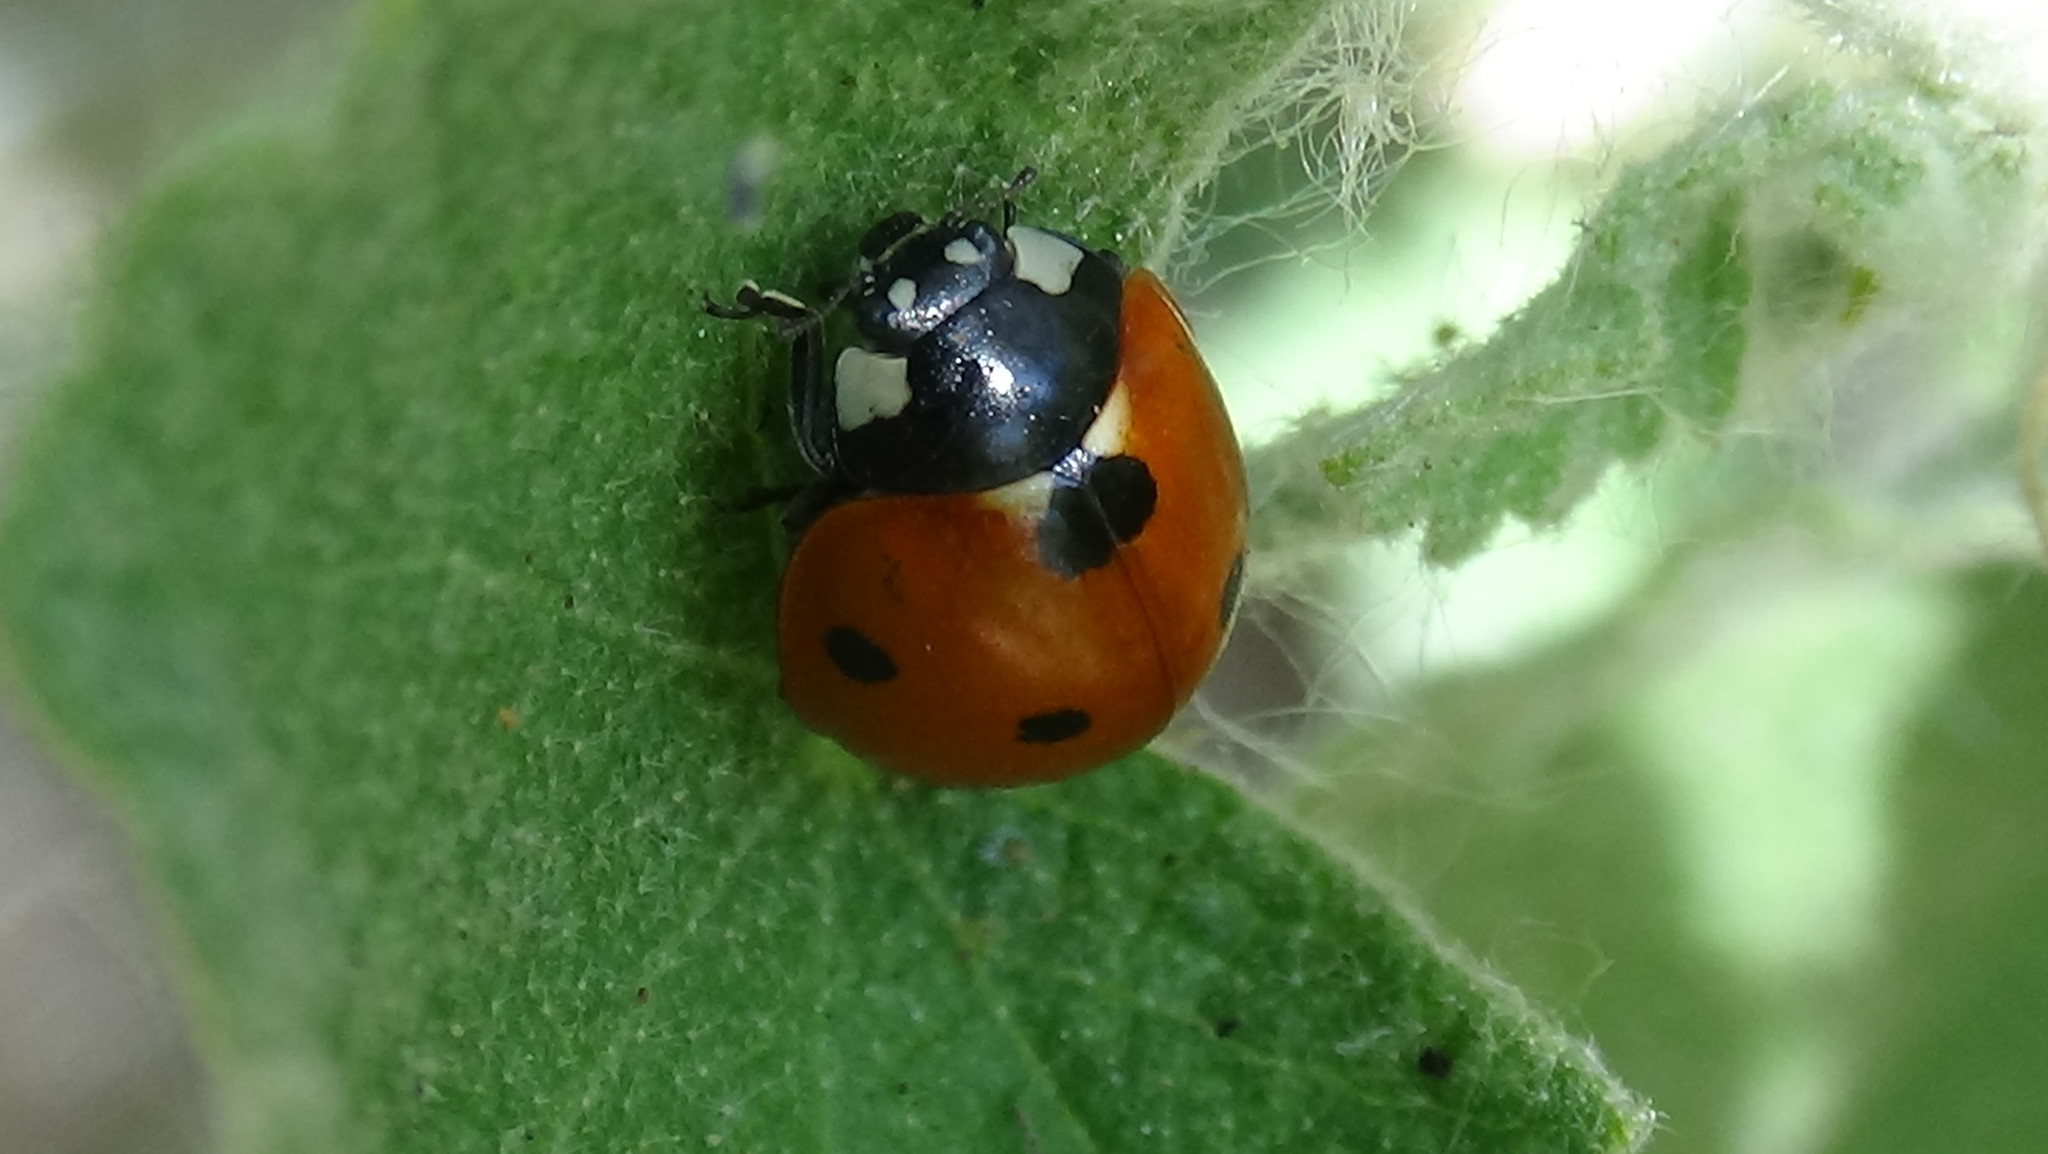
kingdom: Animalia
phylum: Arthropoda
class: Insecta
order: Coleoptera
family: Coccinellidae
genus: Coccinella
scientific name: Coccinella septempunctata
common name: Sevenspotted lady beetle
